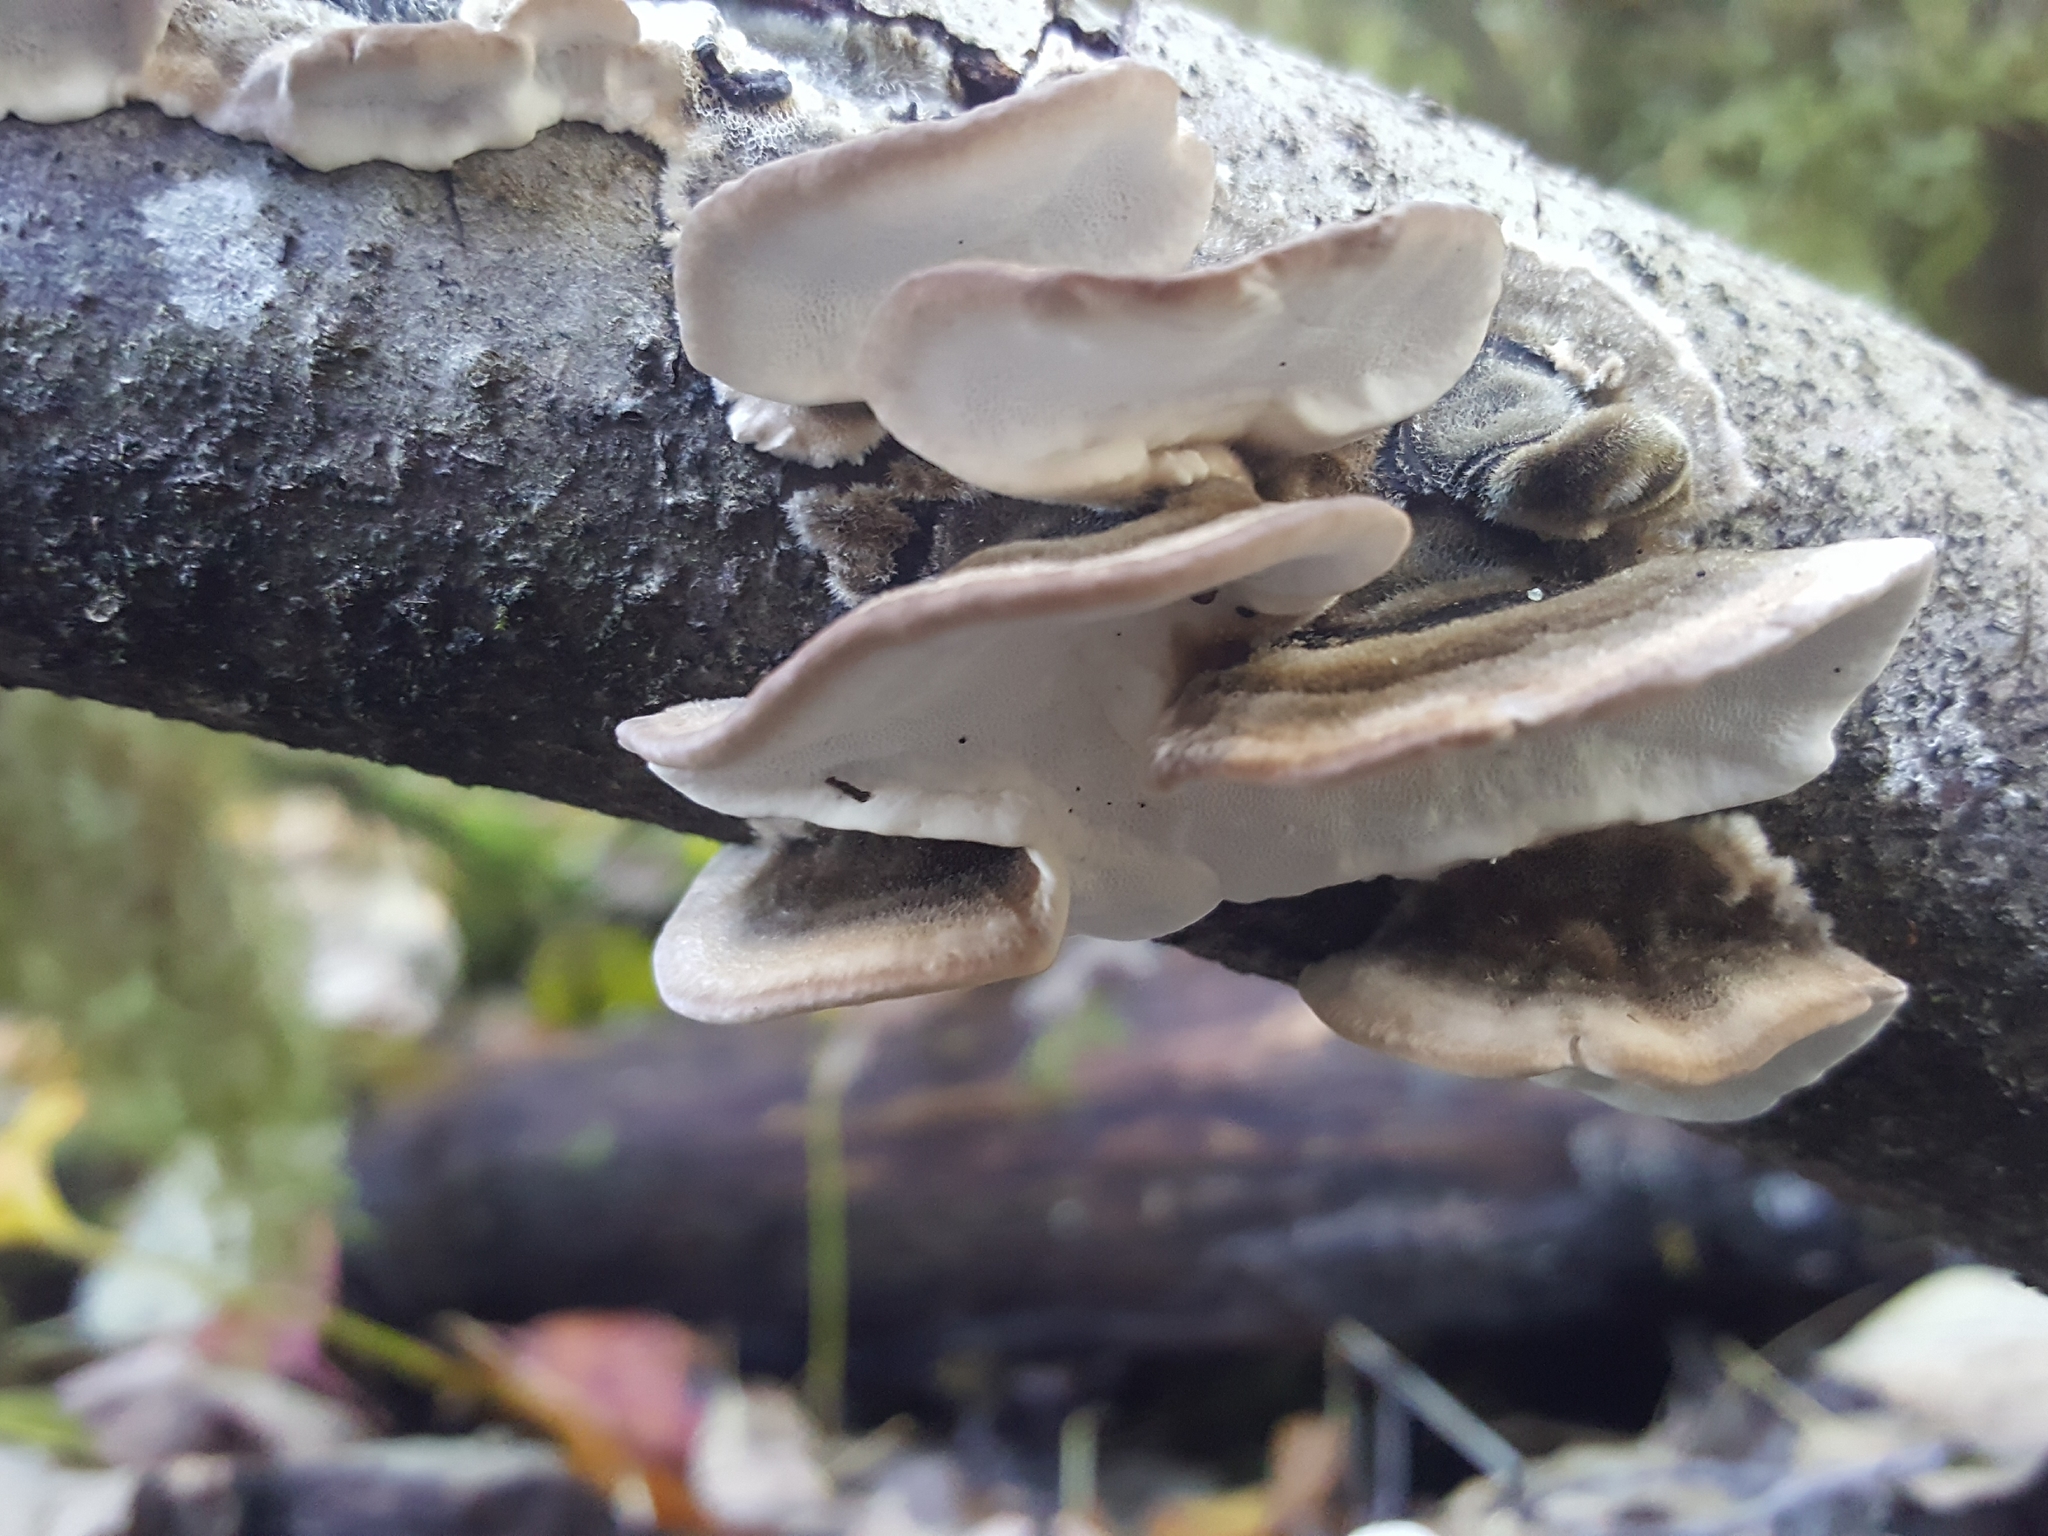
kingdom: Fungi
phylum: Basidiomycota
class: Agaricomycetes
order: Polyporales
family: Polyporaceae
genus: Trametes
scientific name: Trametes versicolor
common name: Turkeytail
